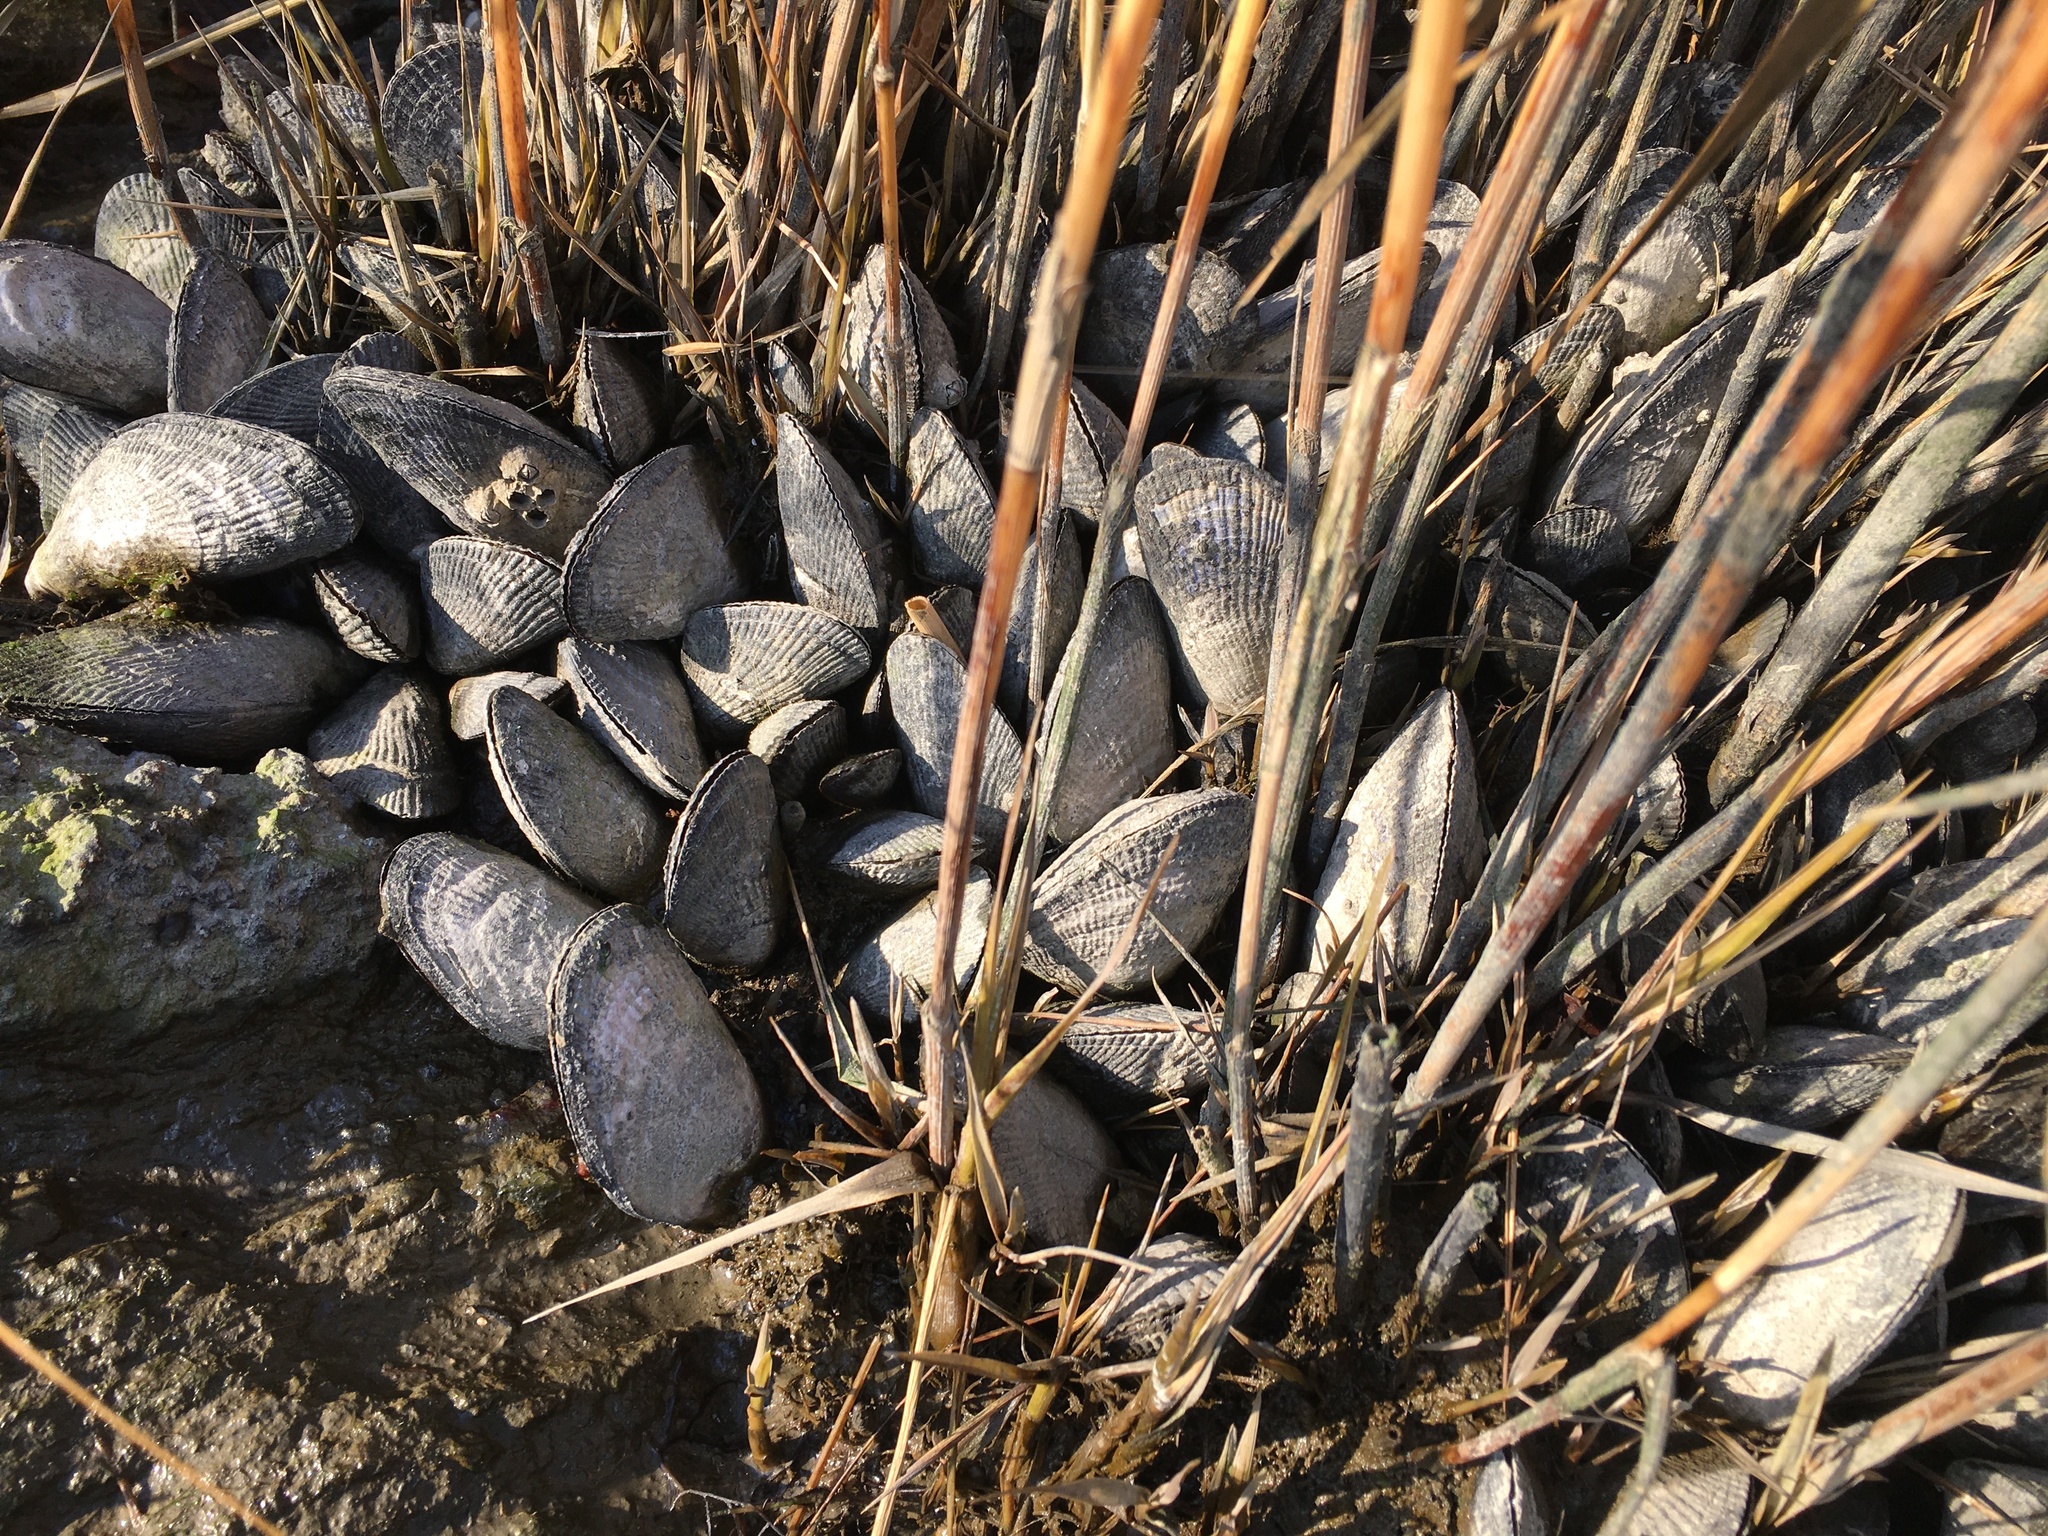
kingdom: Animalia
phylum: Mollusca
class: Bivalvia
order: Mytilida
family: Mytilidae
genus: Geukensia
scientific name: Geukensia demissa
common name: Ribbed mussel
